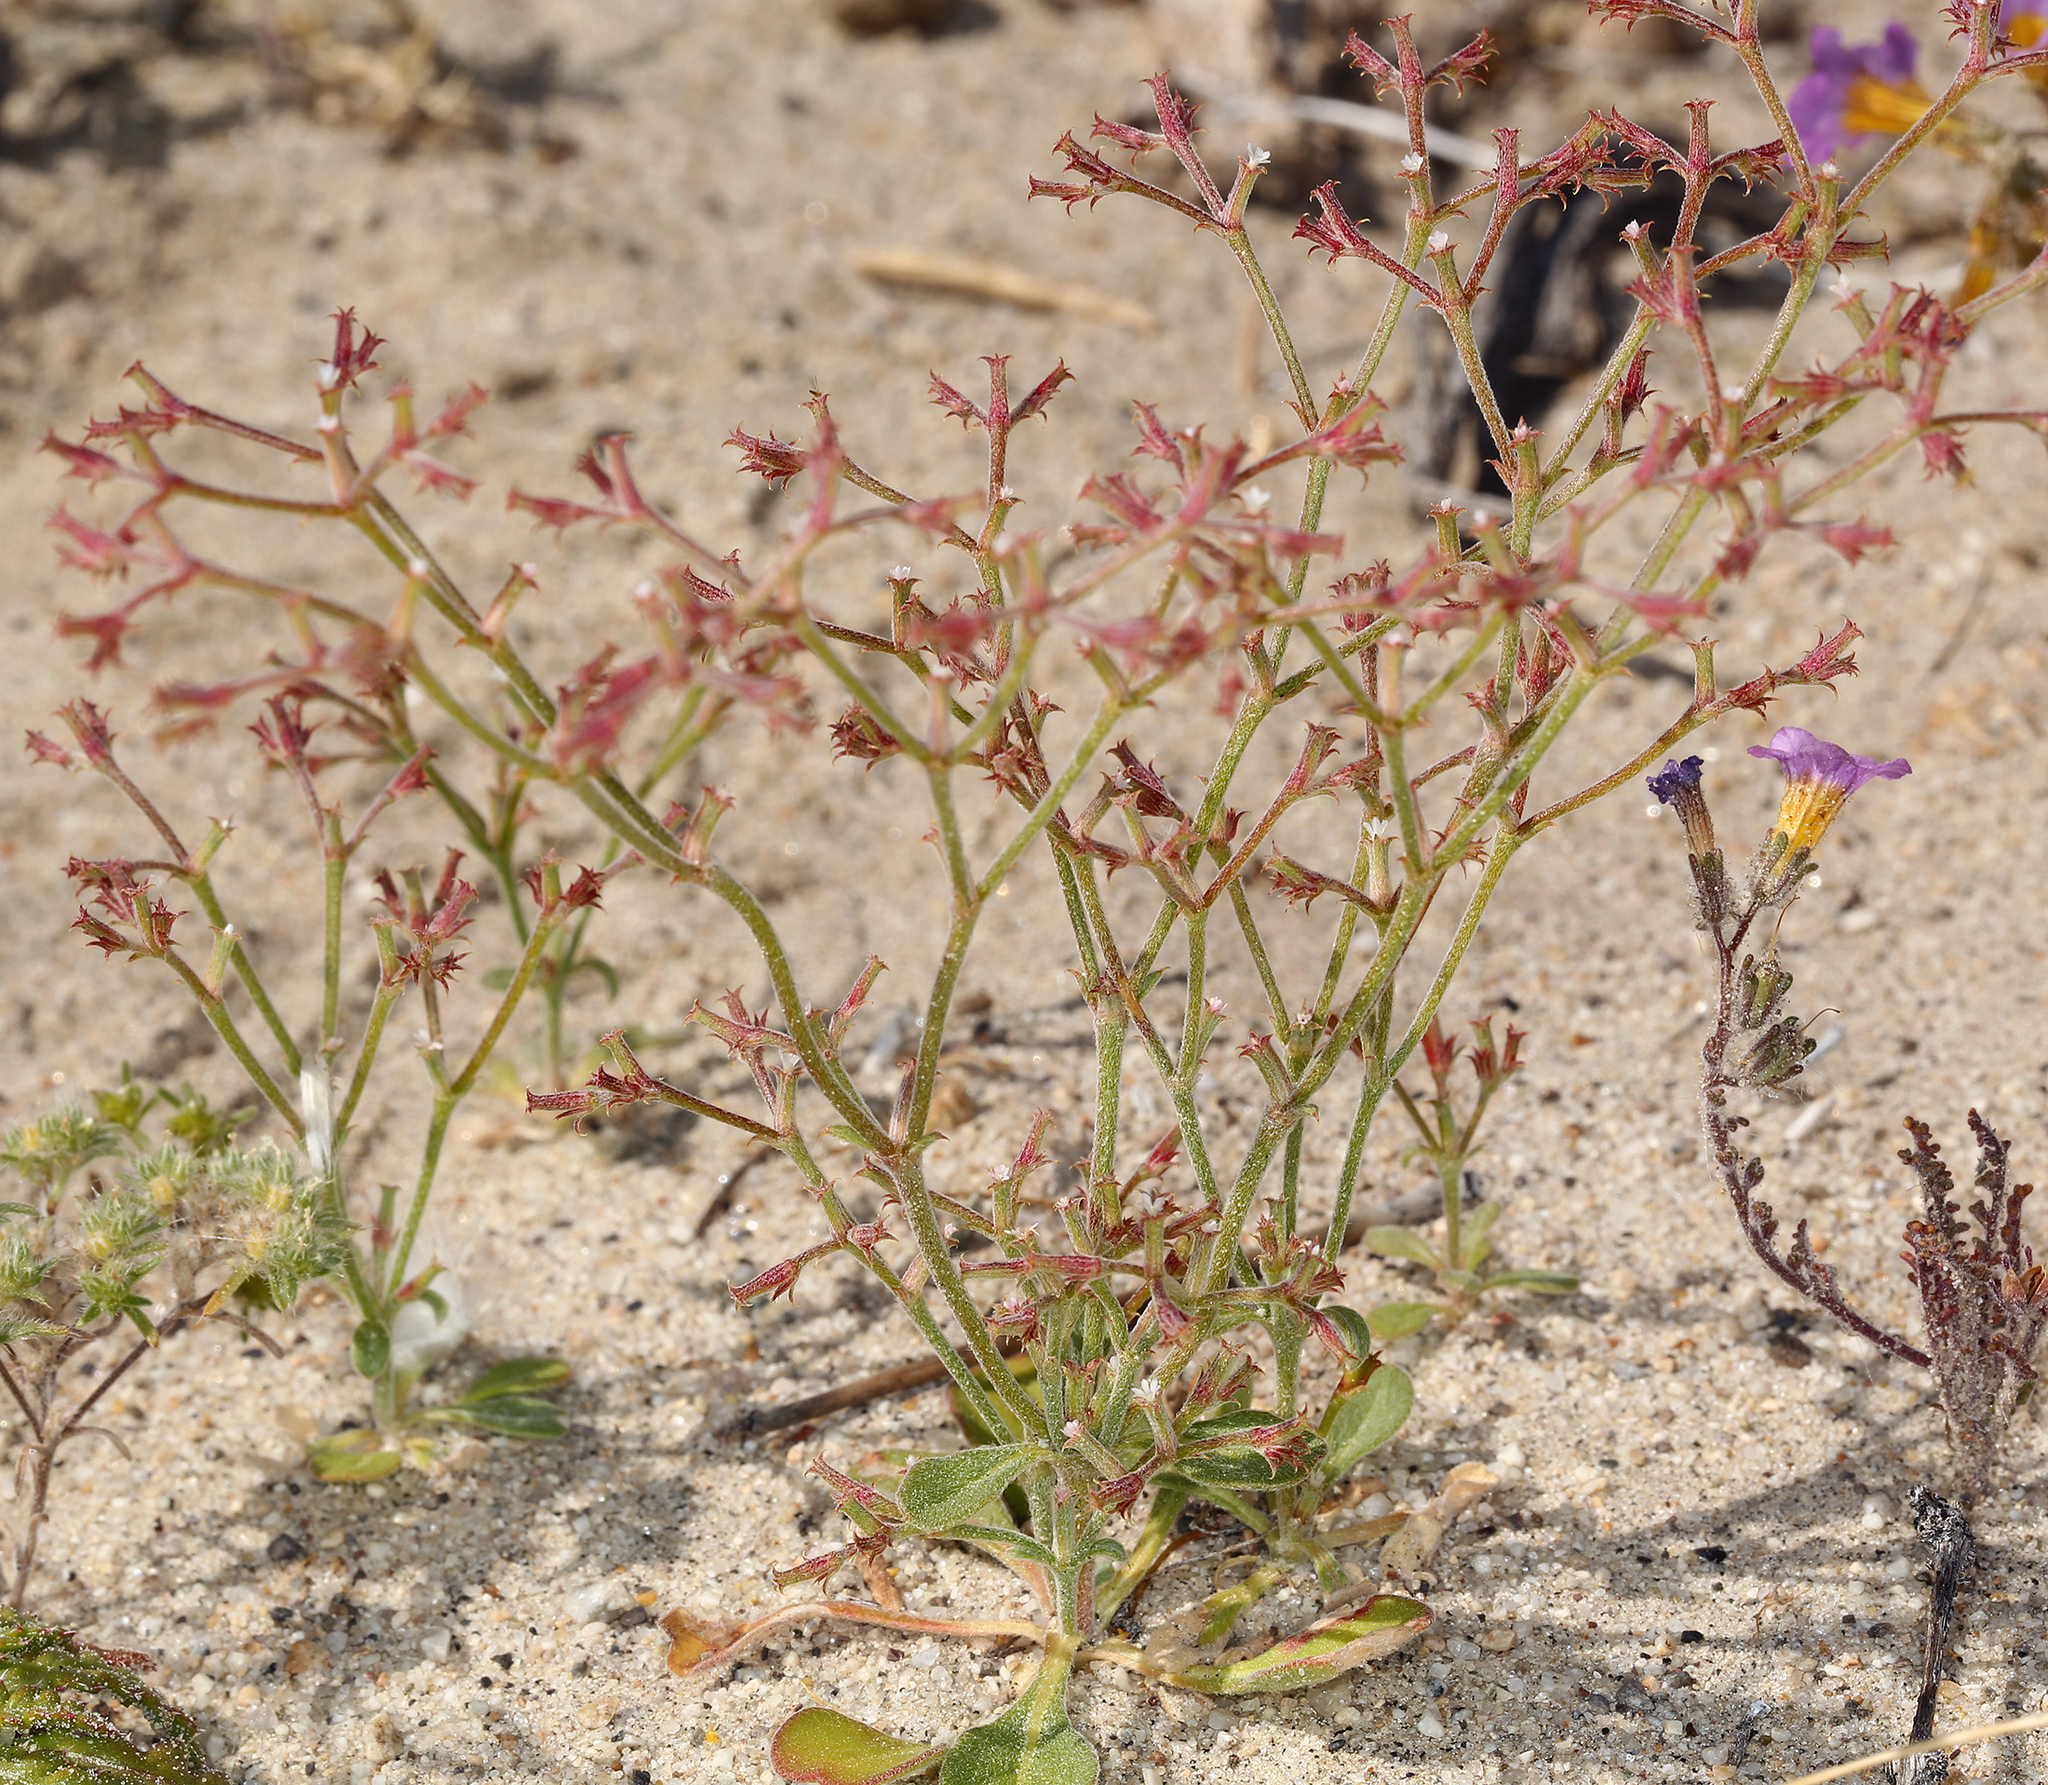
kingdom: Plantae
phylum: Tracheophyta
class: Magnoliopsida
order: Caryophyllales
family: Polygonaceae
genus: Chorizanthe
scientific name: Chorizanthe brevicornu
